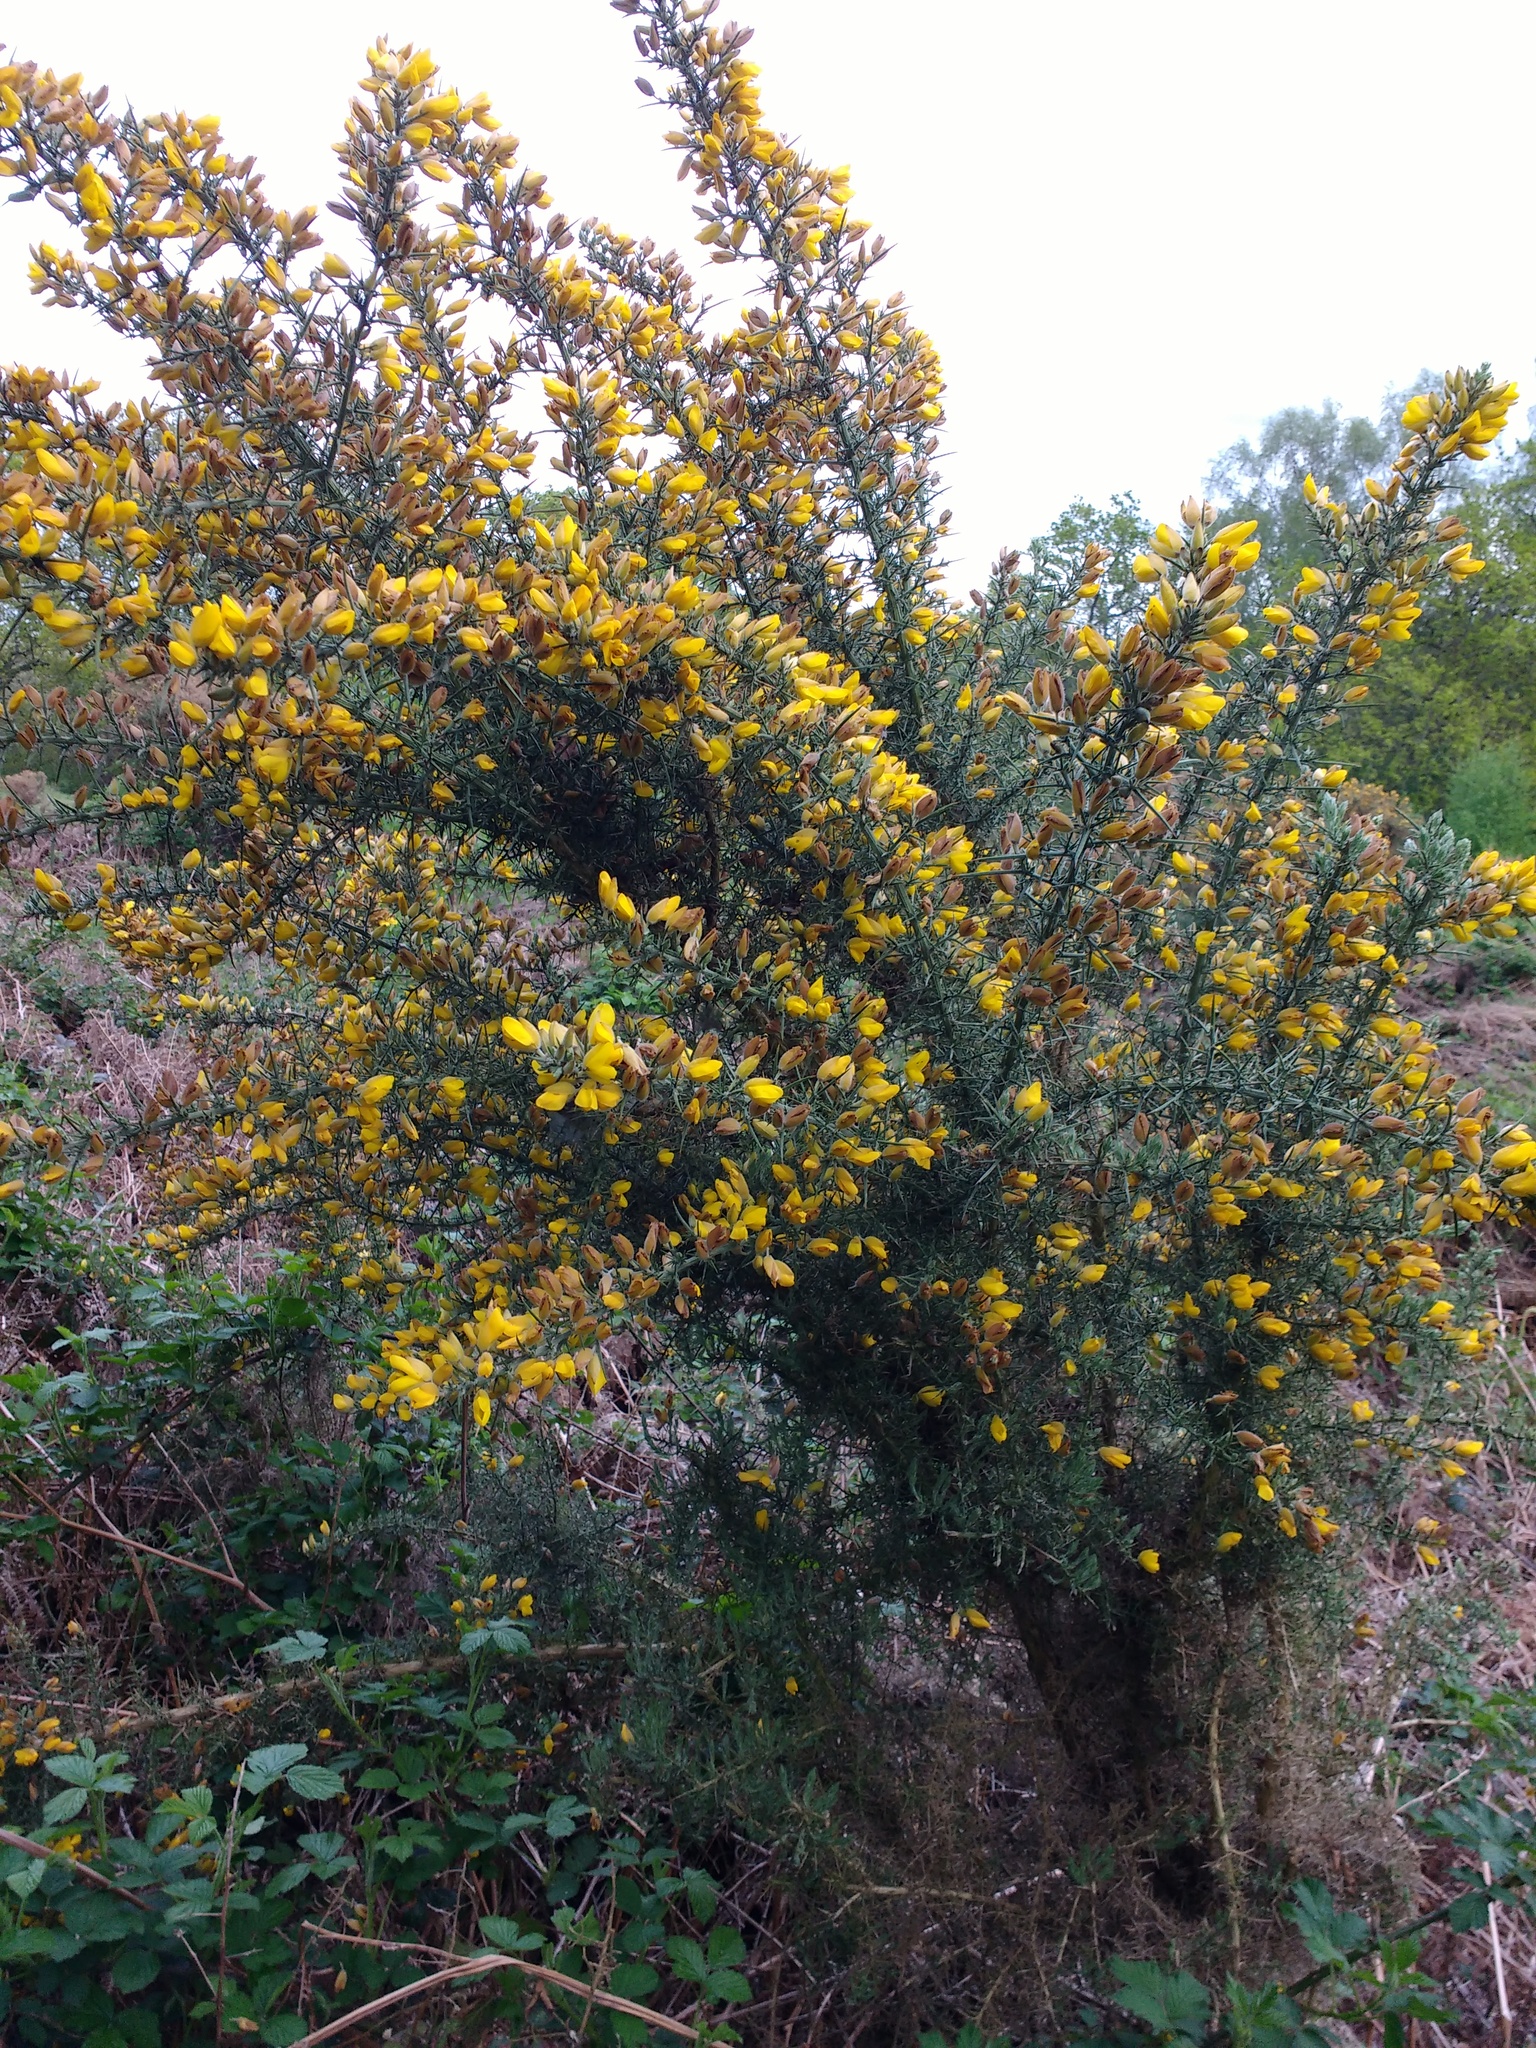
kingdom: Plantae
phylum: Tracheophyta
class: Magnoliopsida
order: Fabales
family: Fabaceae
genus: Ulex
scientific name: Ulex europaeus
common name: Common gorse
